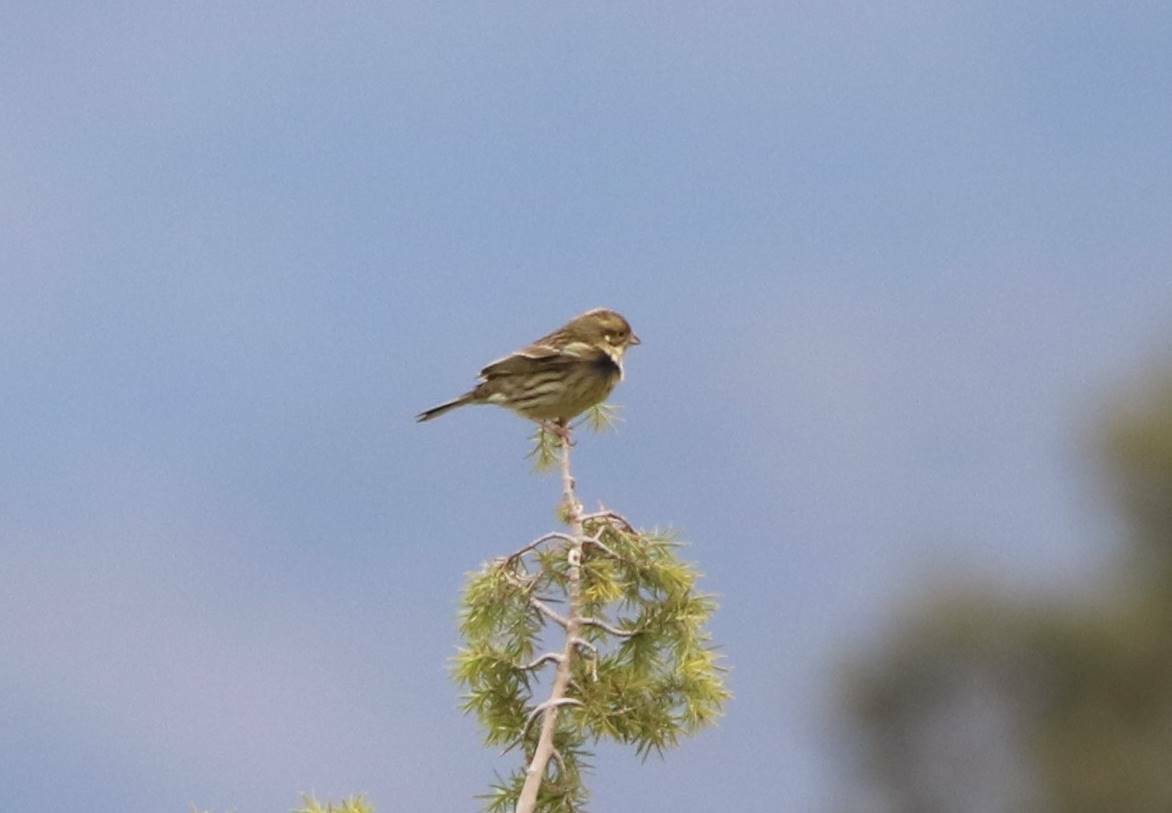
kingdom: Animalia
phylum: Chordata
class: Aves
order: Passeriformes
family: Emberizidae
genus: Emberiza
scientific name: Emberiza cirlus
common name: Cirl bunting
